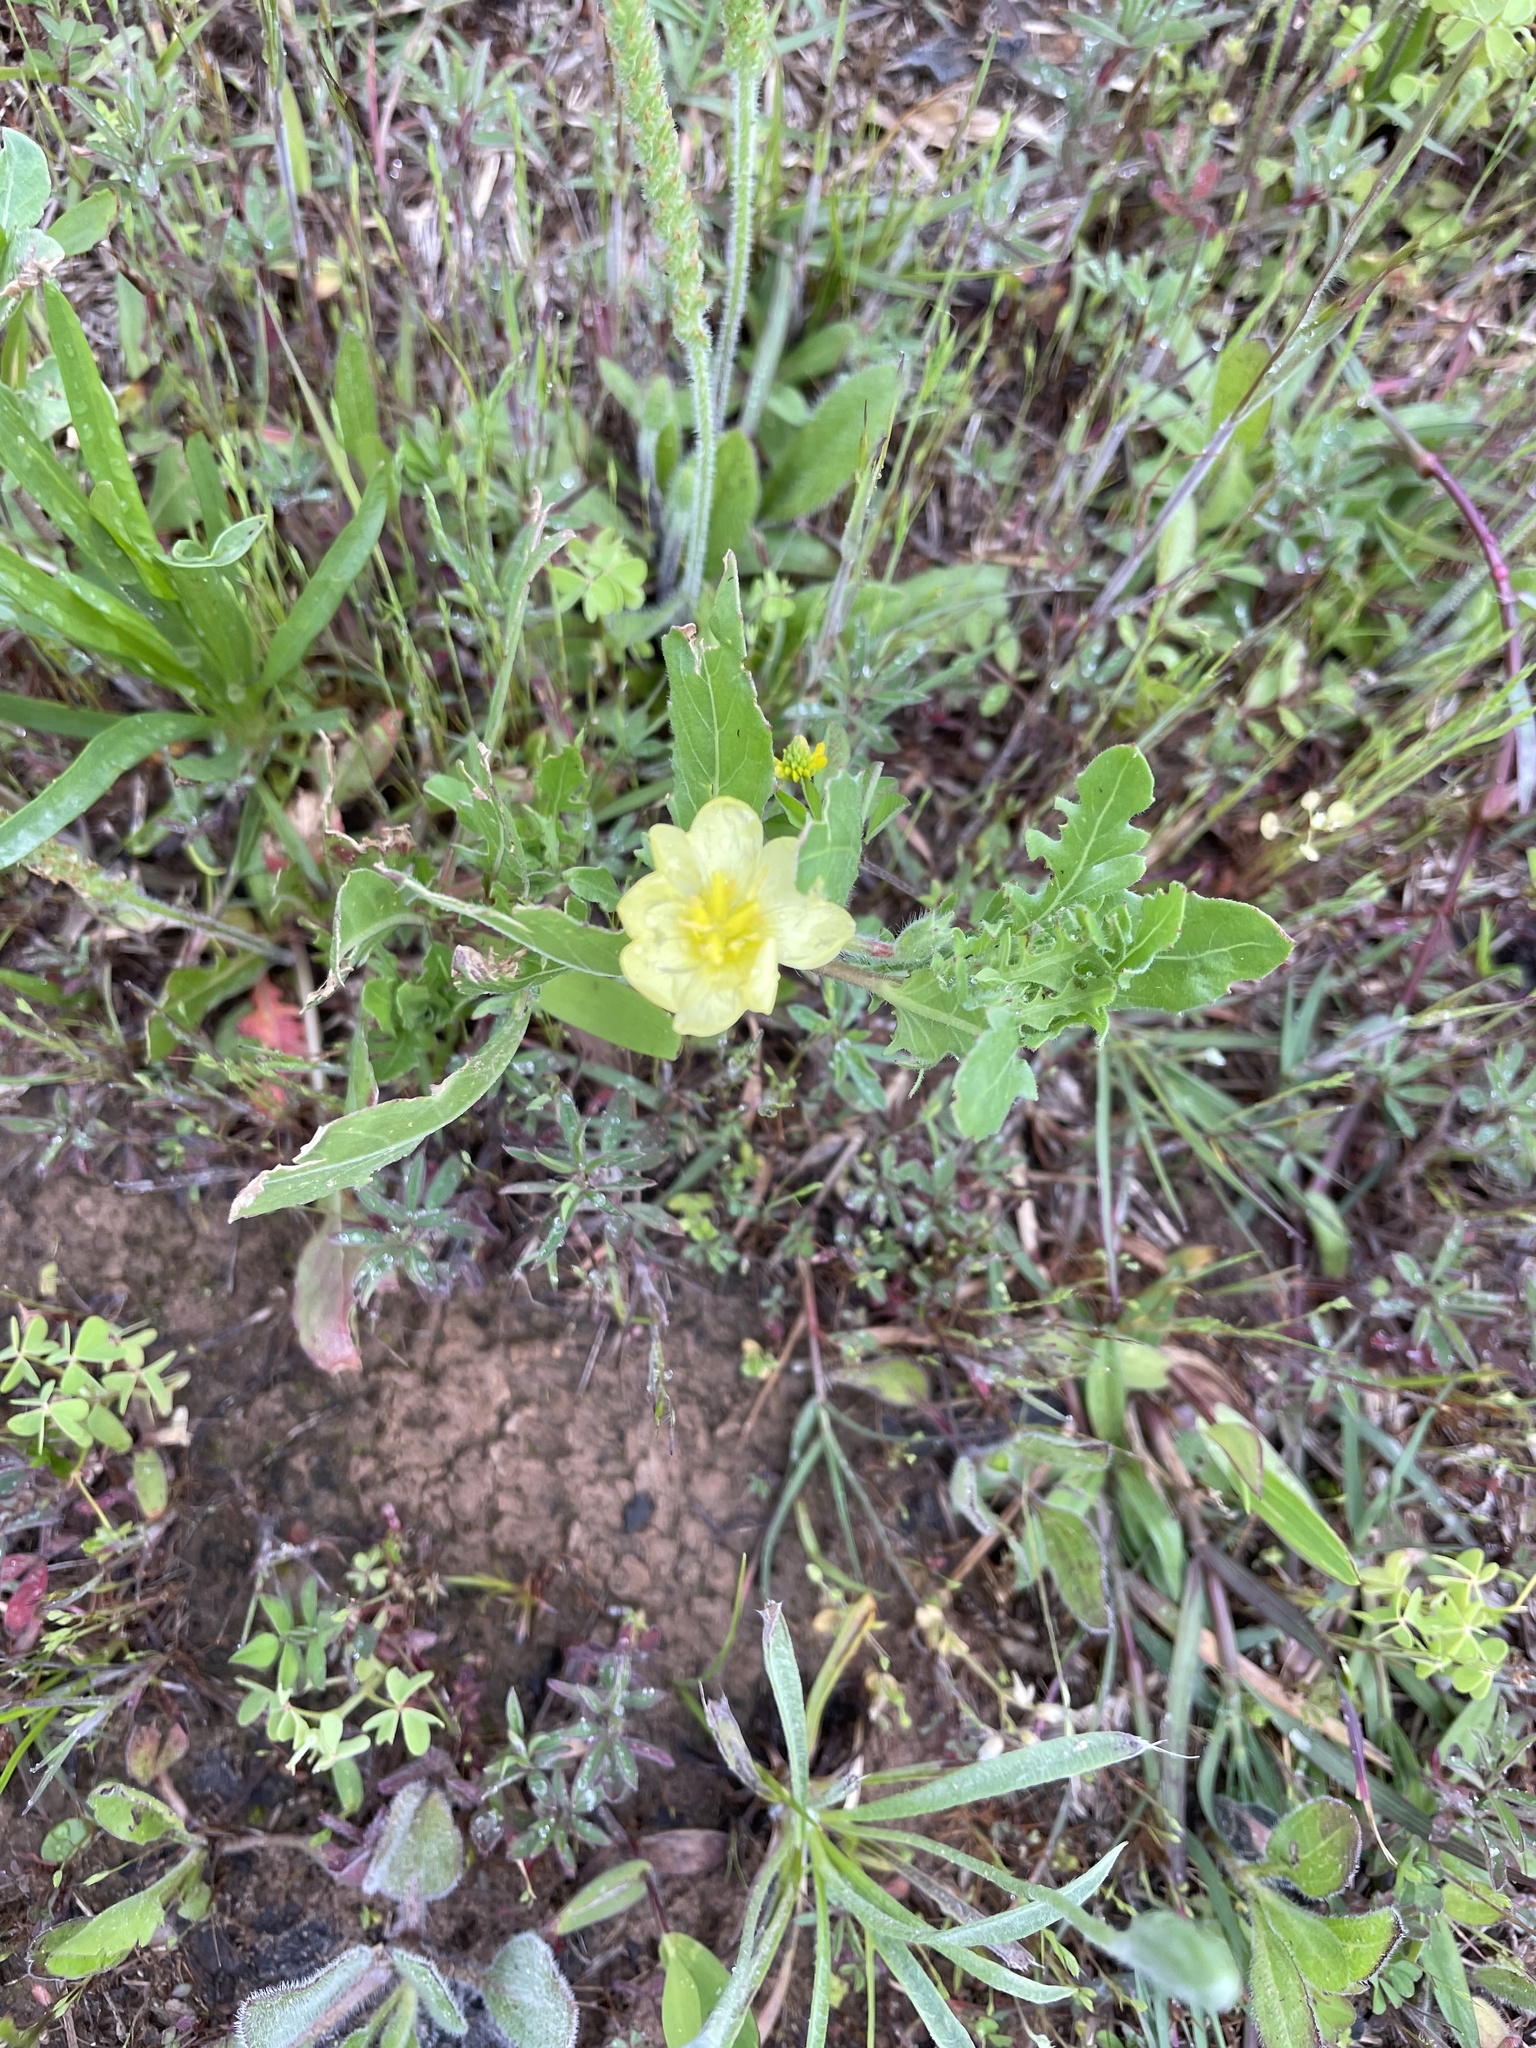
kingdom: Plantae
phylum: Tracheophyta
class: Magnoliopsida
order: Myrtales
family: Onagraceae
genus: Oenothera
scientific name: Oenothera laciniata
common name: Cut-leaved evening-primrose
